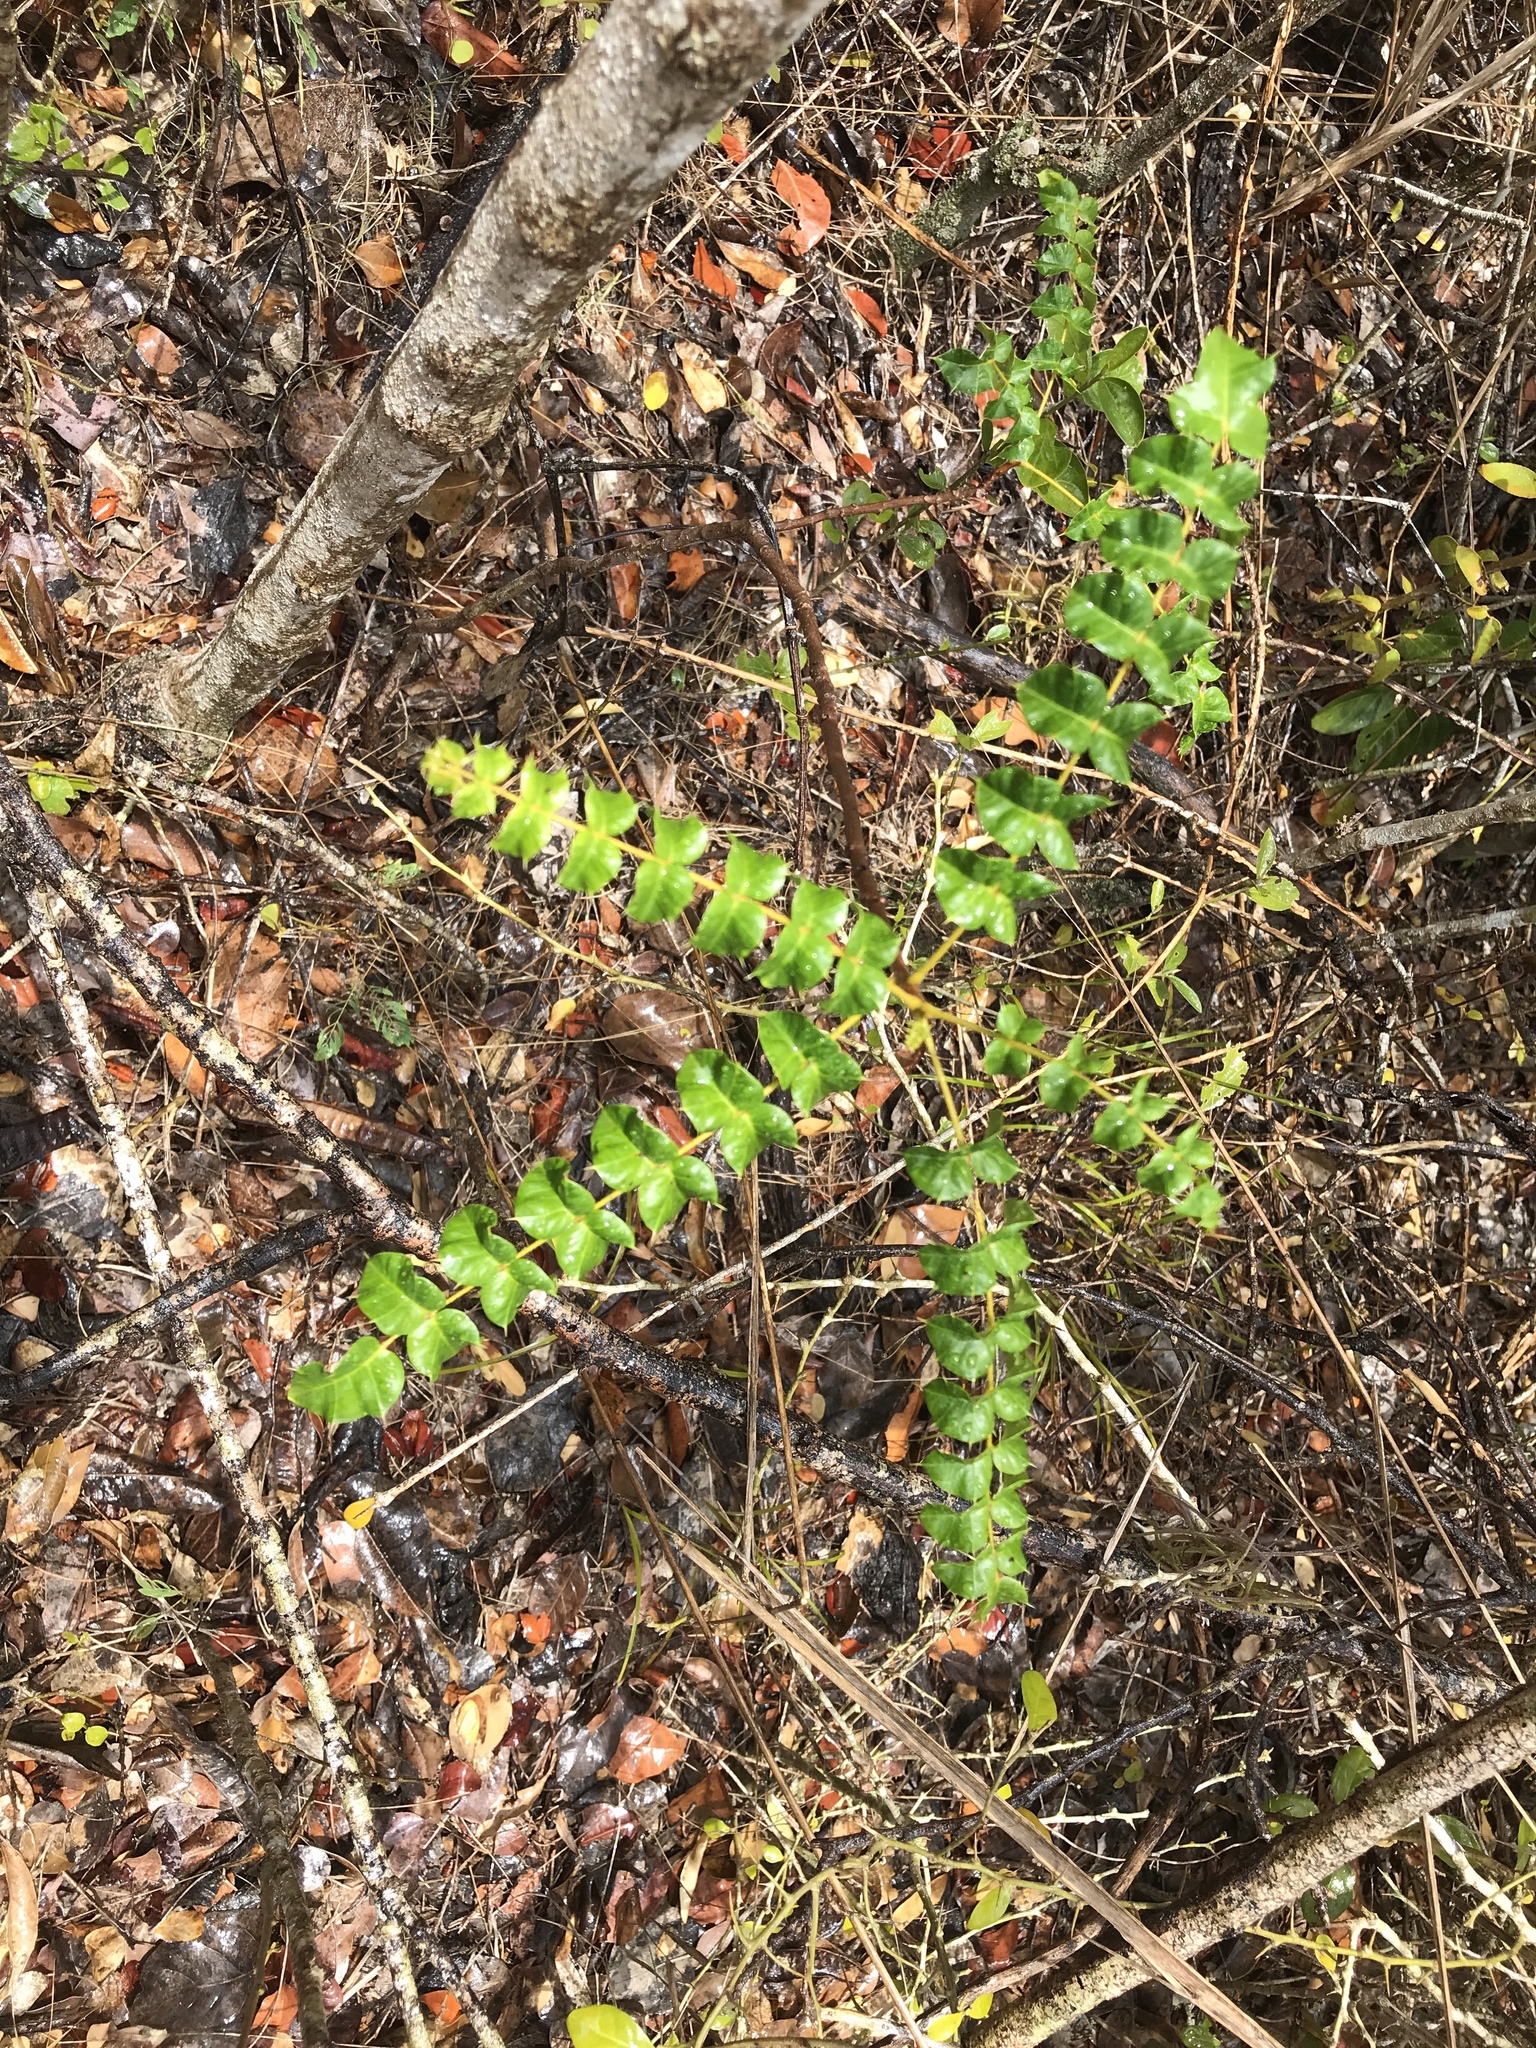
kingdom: Plantae
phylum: Tracheophyta
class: Magnoliopsida
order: Sapindales
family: Anacardiaceae
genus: Comocladia
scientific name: Comocladia dodonaea
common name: Poison ash
